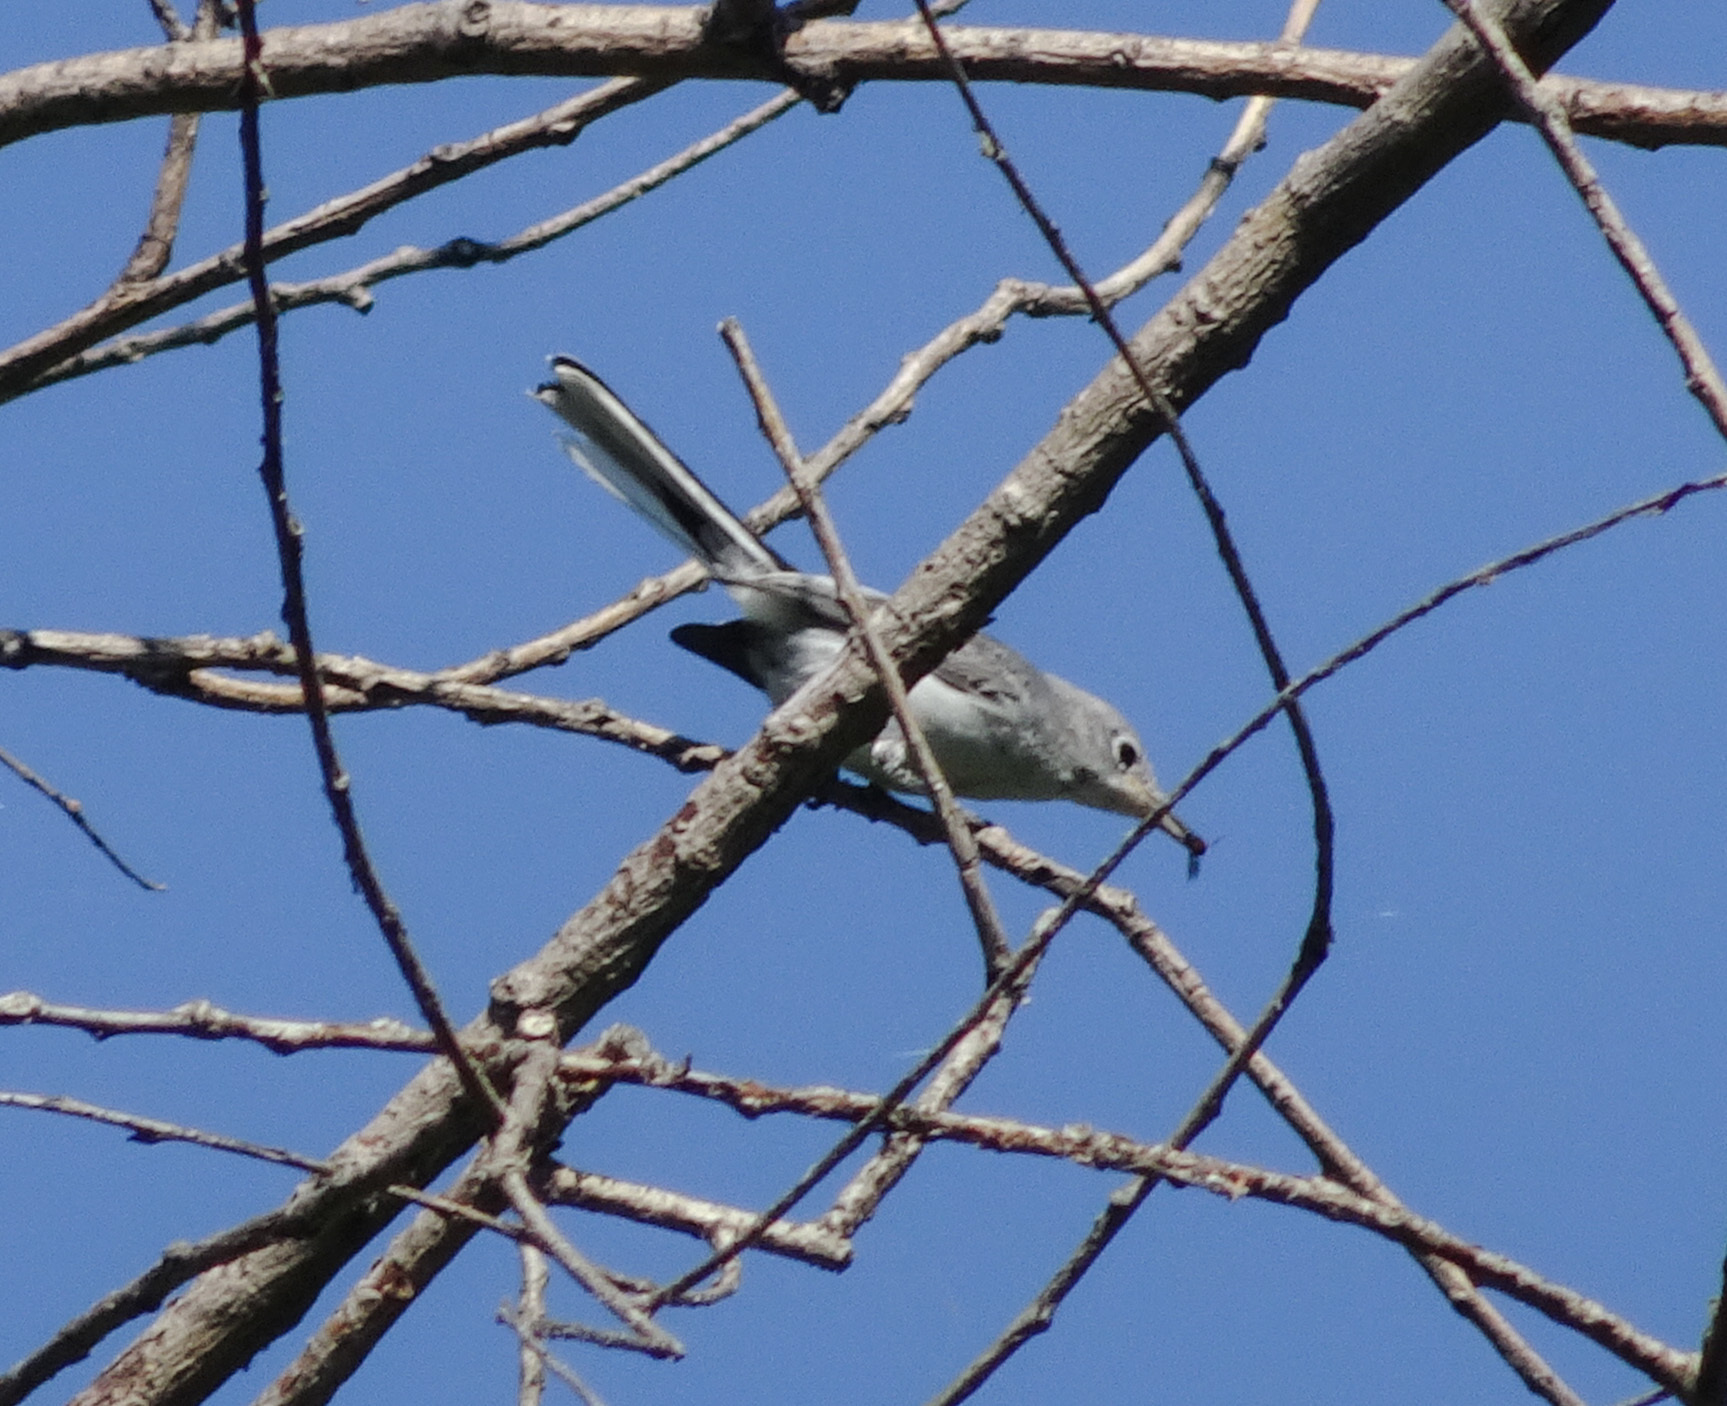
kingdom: Animalia
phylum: Chordata
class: Aves
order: Passeriformes
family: Polioptilidae
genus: Polioptila
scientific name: Polioptila caerulea
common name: Blue-gray gnatcatcher
